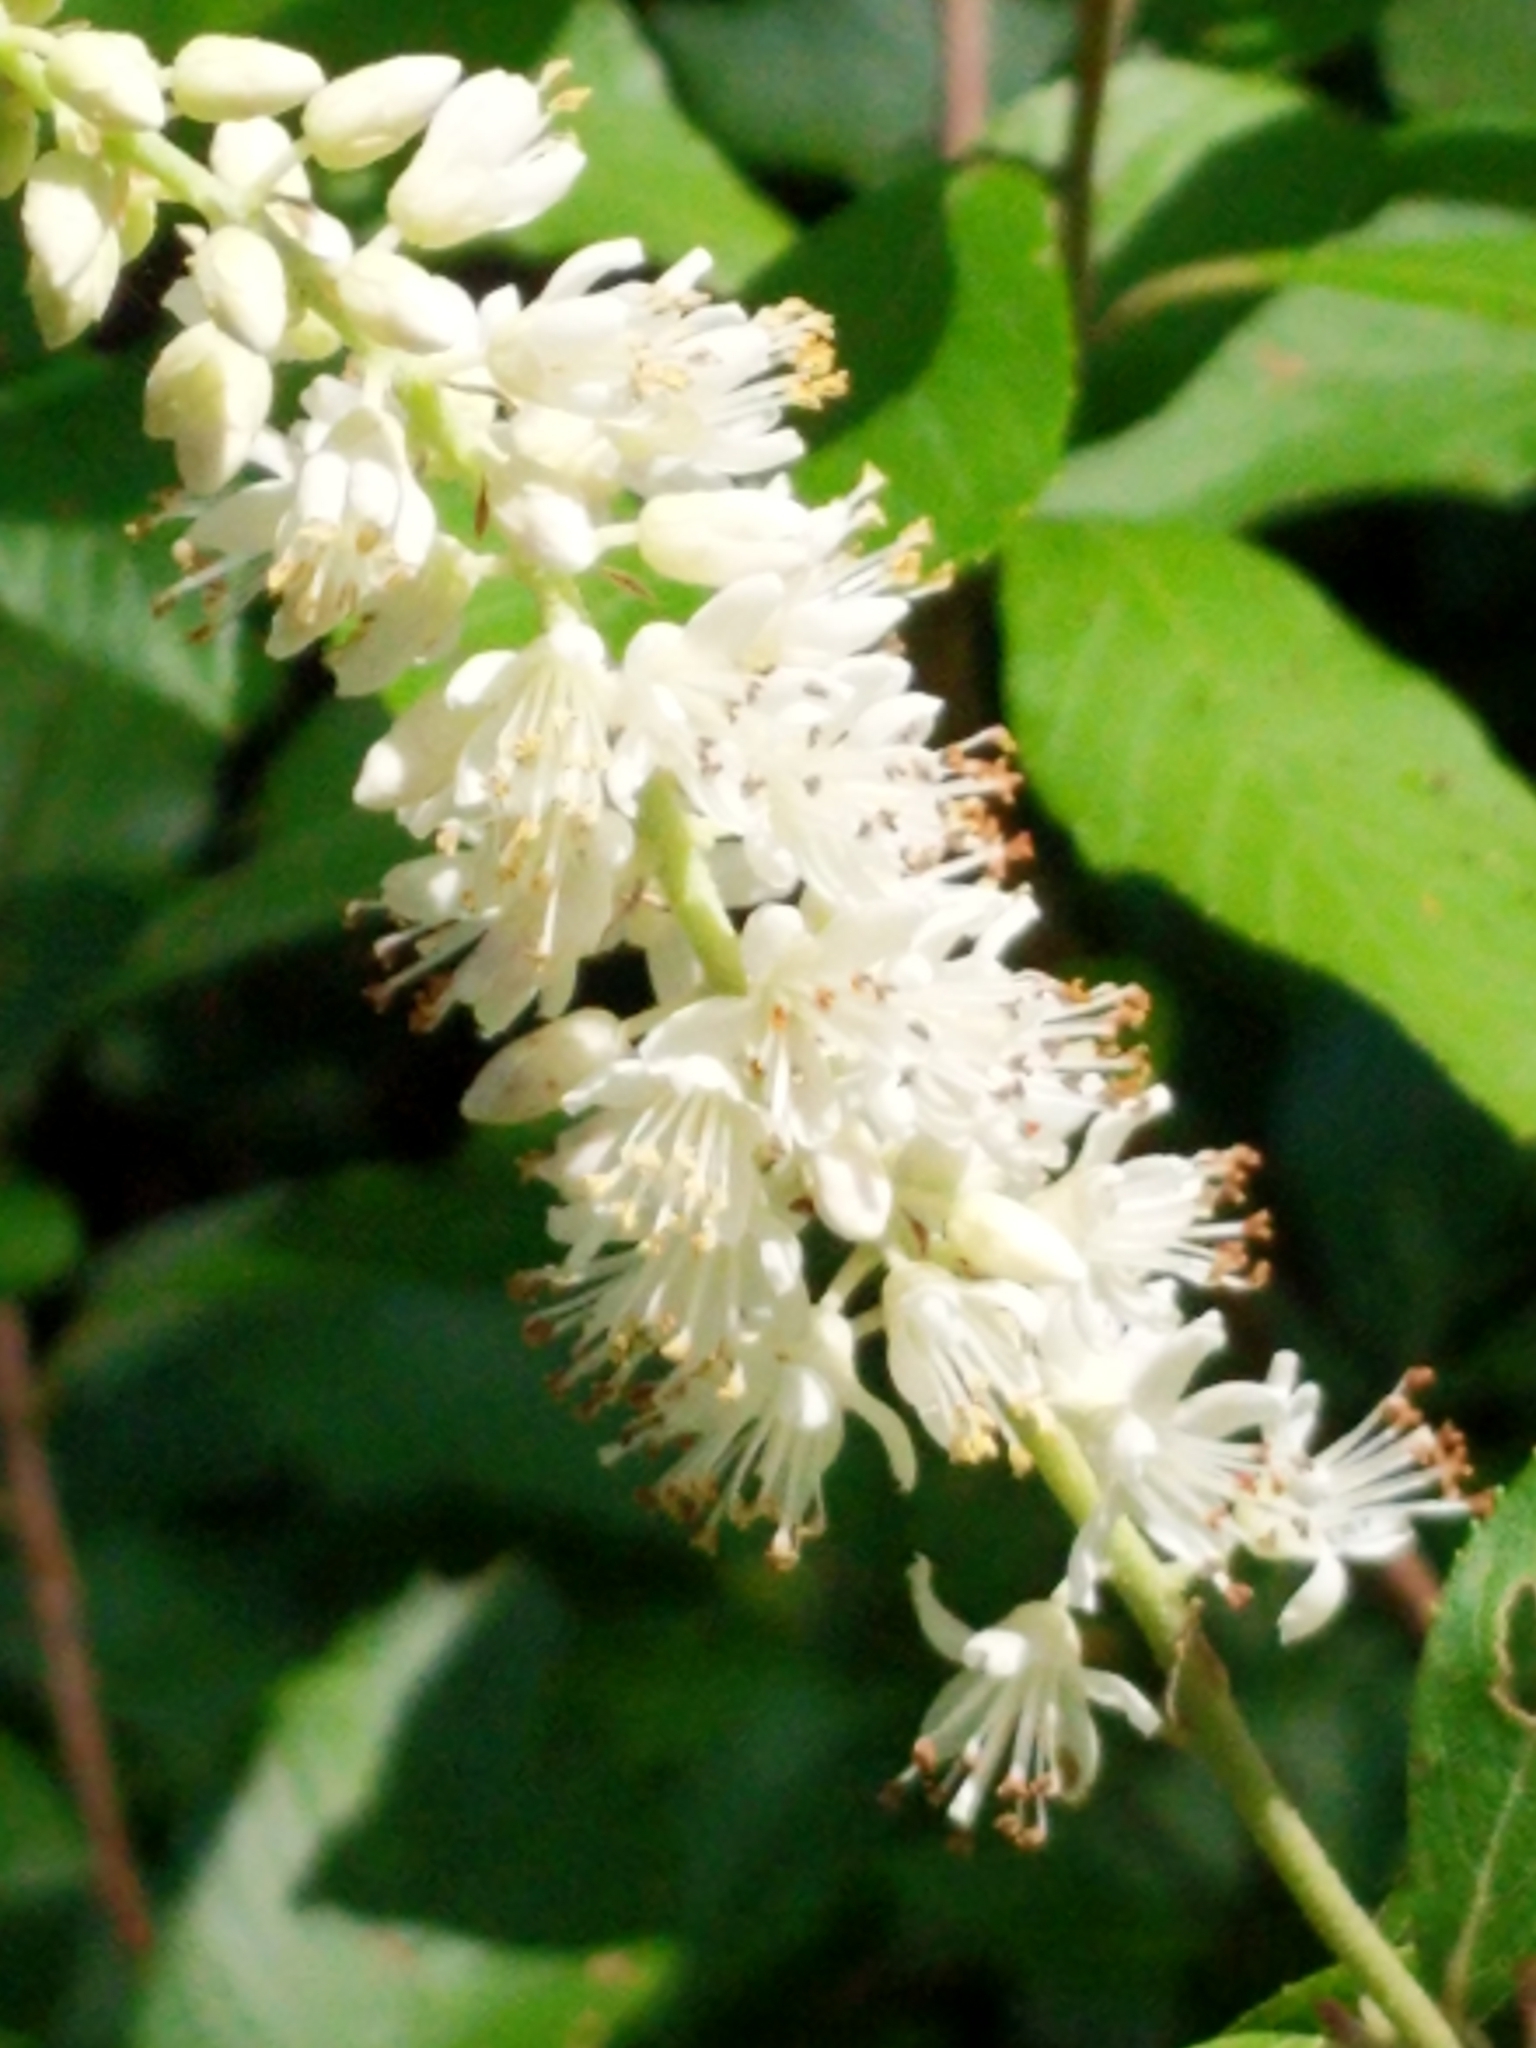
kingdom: Plantae
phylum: Tracheophyta
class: Magnoliopsida
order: Ericales
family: Clethraceae
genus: Clethra
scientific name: Clethra alnifolia
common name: Sweet pepperbush
